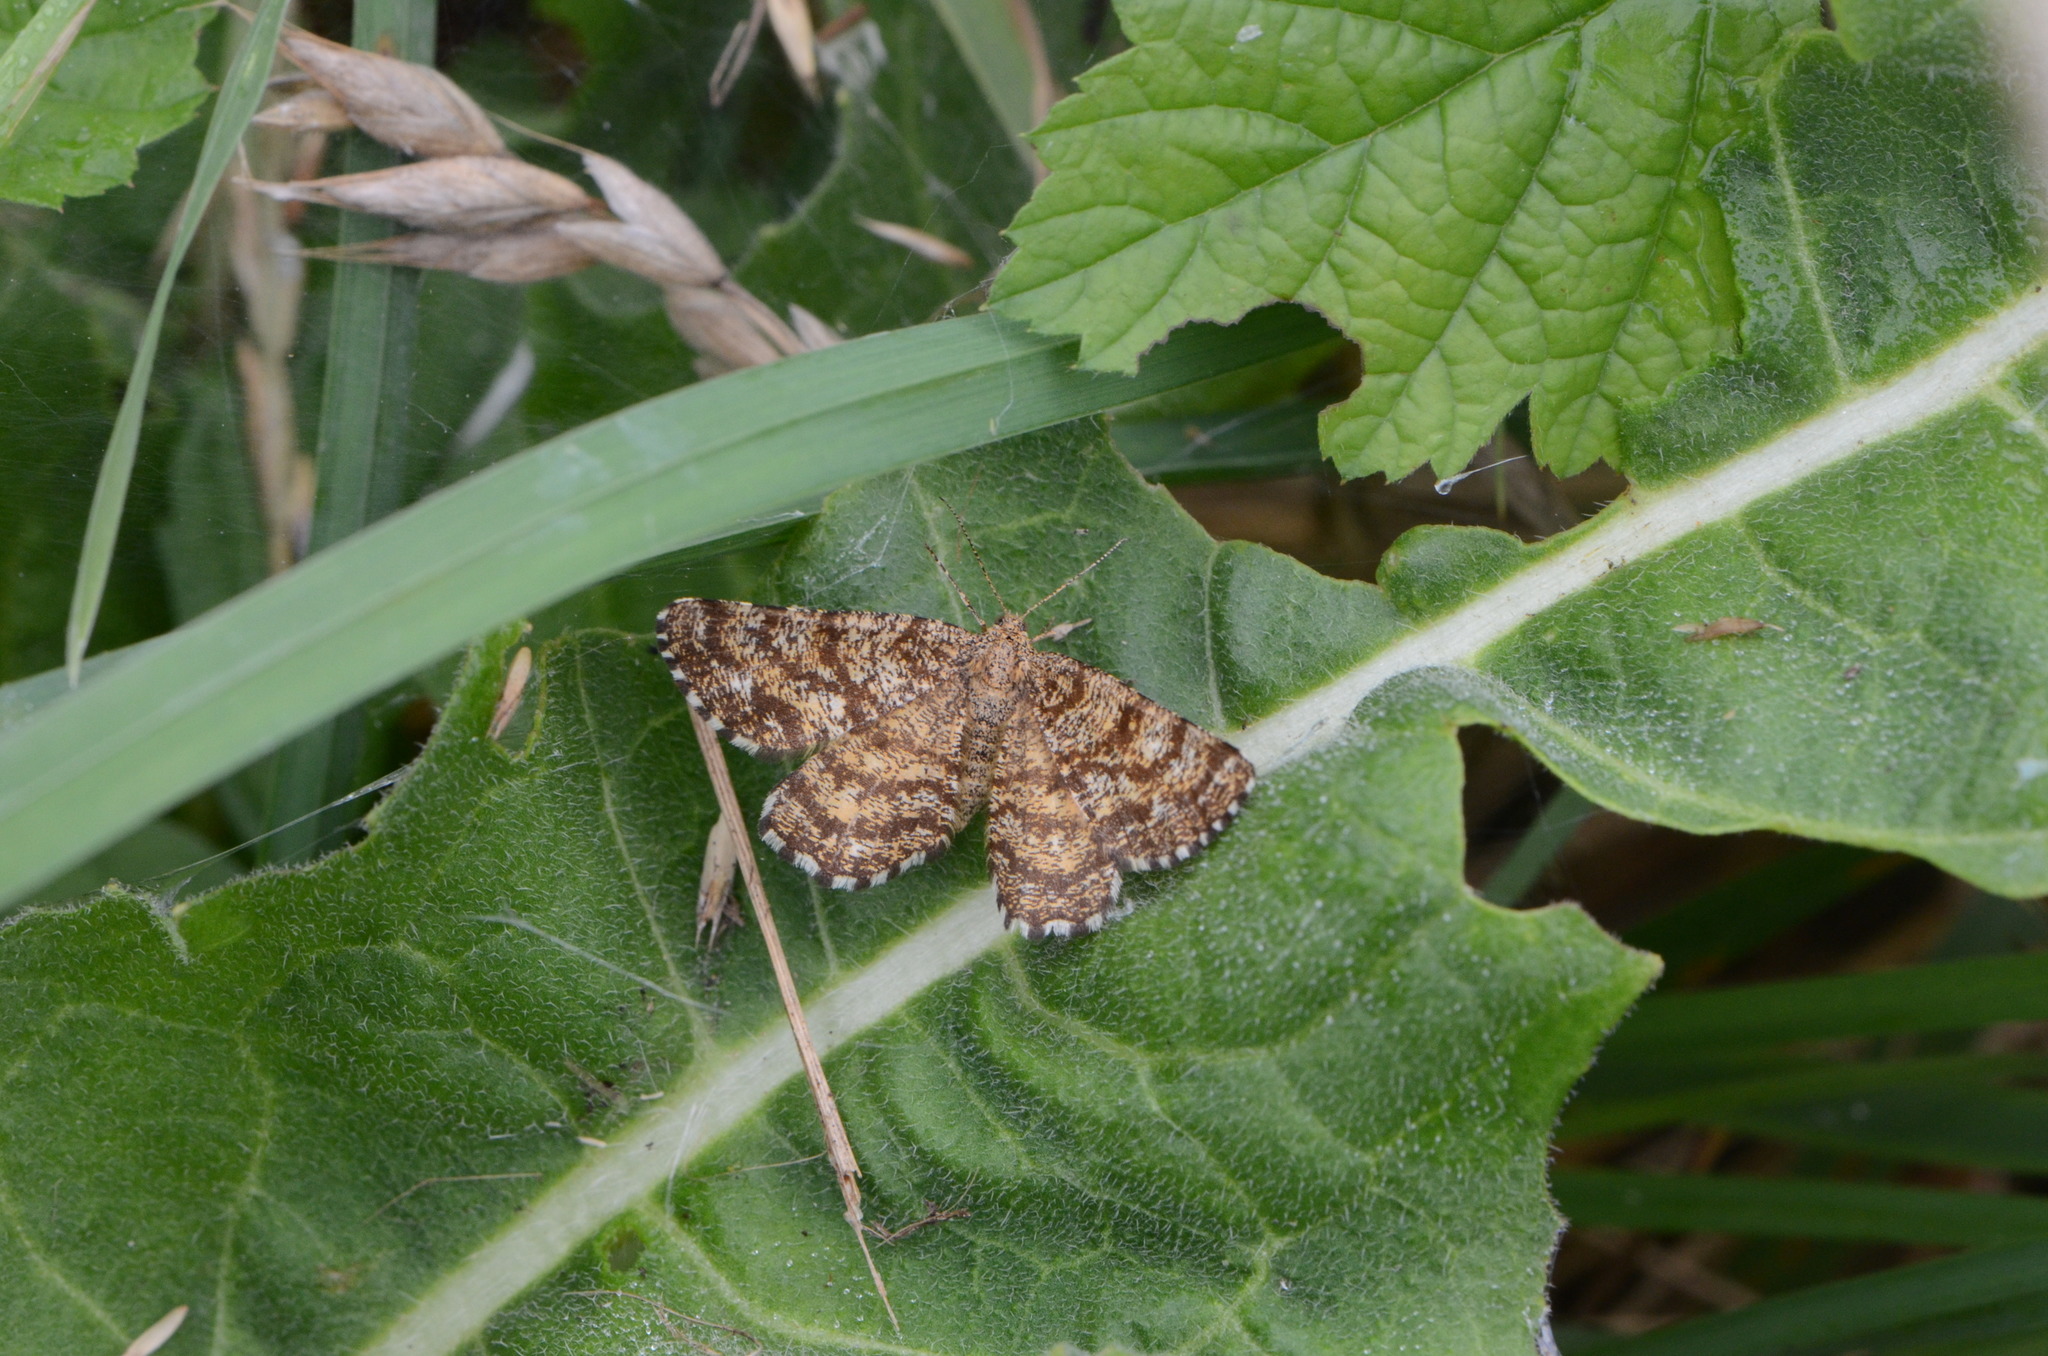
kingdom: Animalia
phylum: Arthropoda
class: Insecta
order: Lepidoptera
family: Geometridae
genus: Ematurga
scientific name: Ematurga atomaria
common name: Common heath
